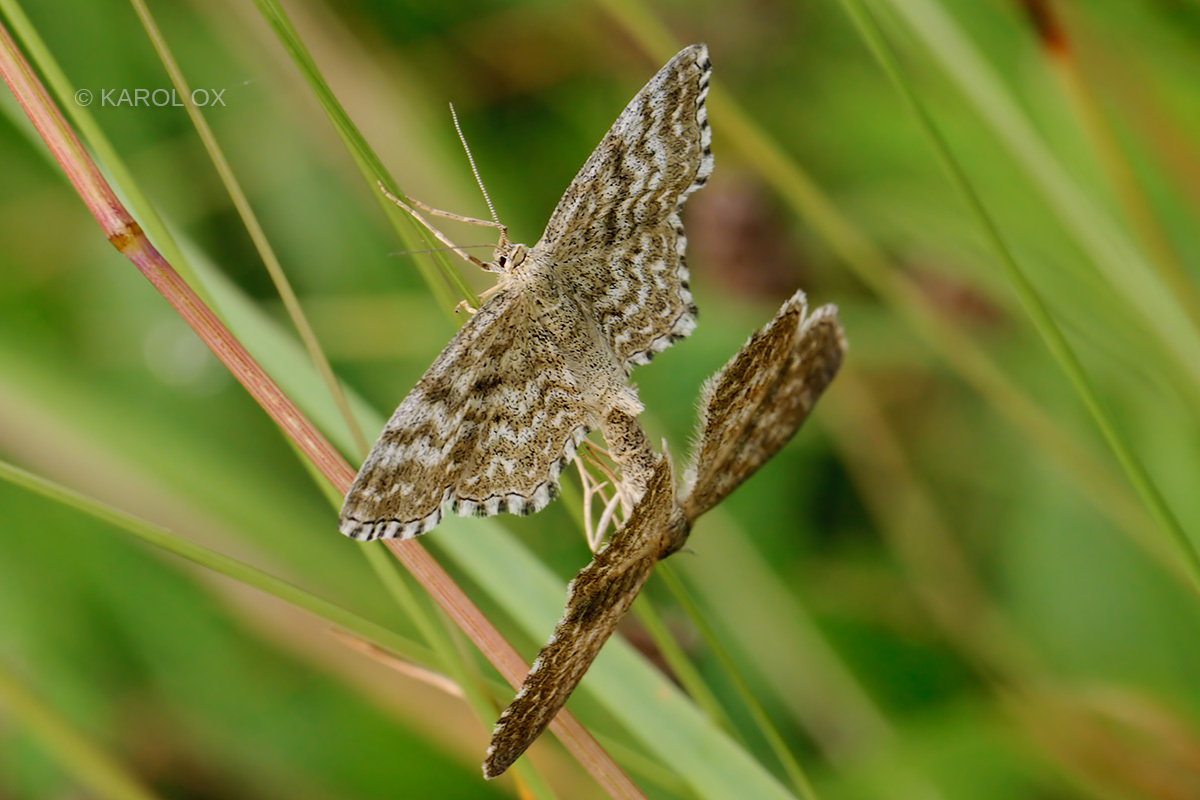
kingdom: Animalia
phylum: Arthropoda
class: Insecta
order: Lepidoptera
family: Geometridae
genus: Scopula
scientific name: Scopula immorata
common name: Lewes wave
